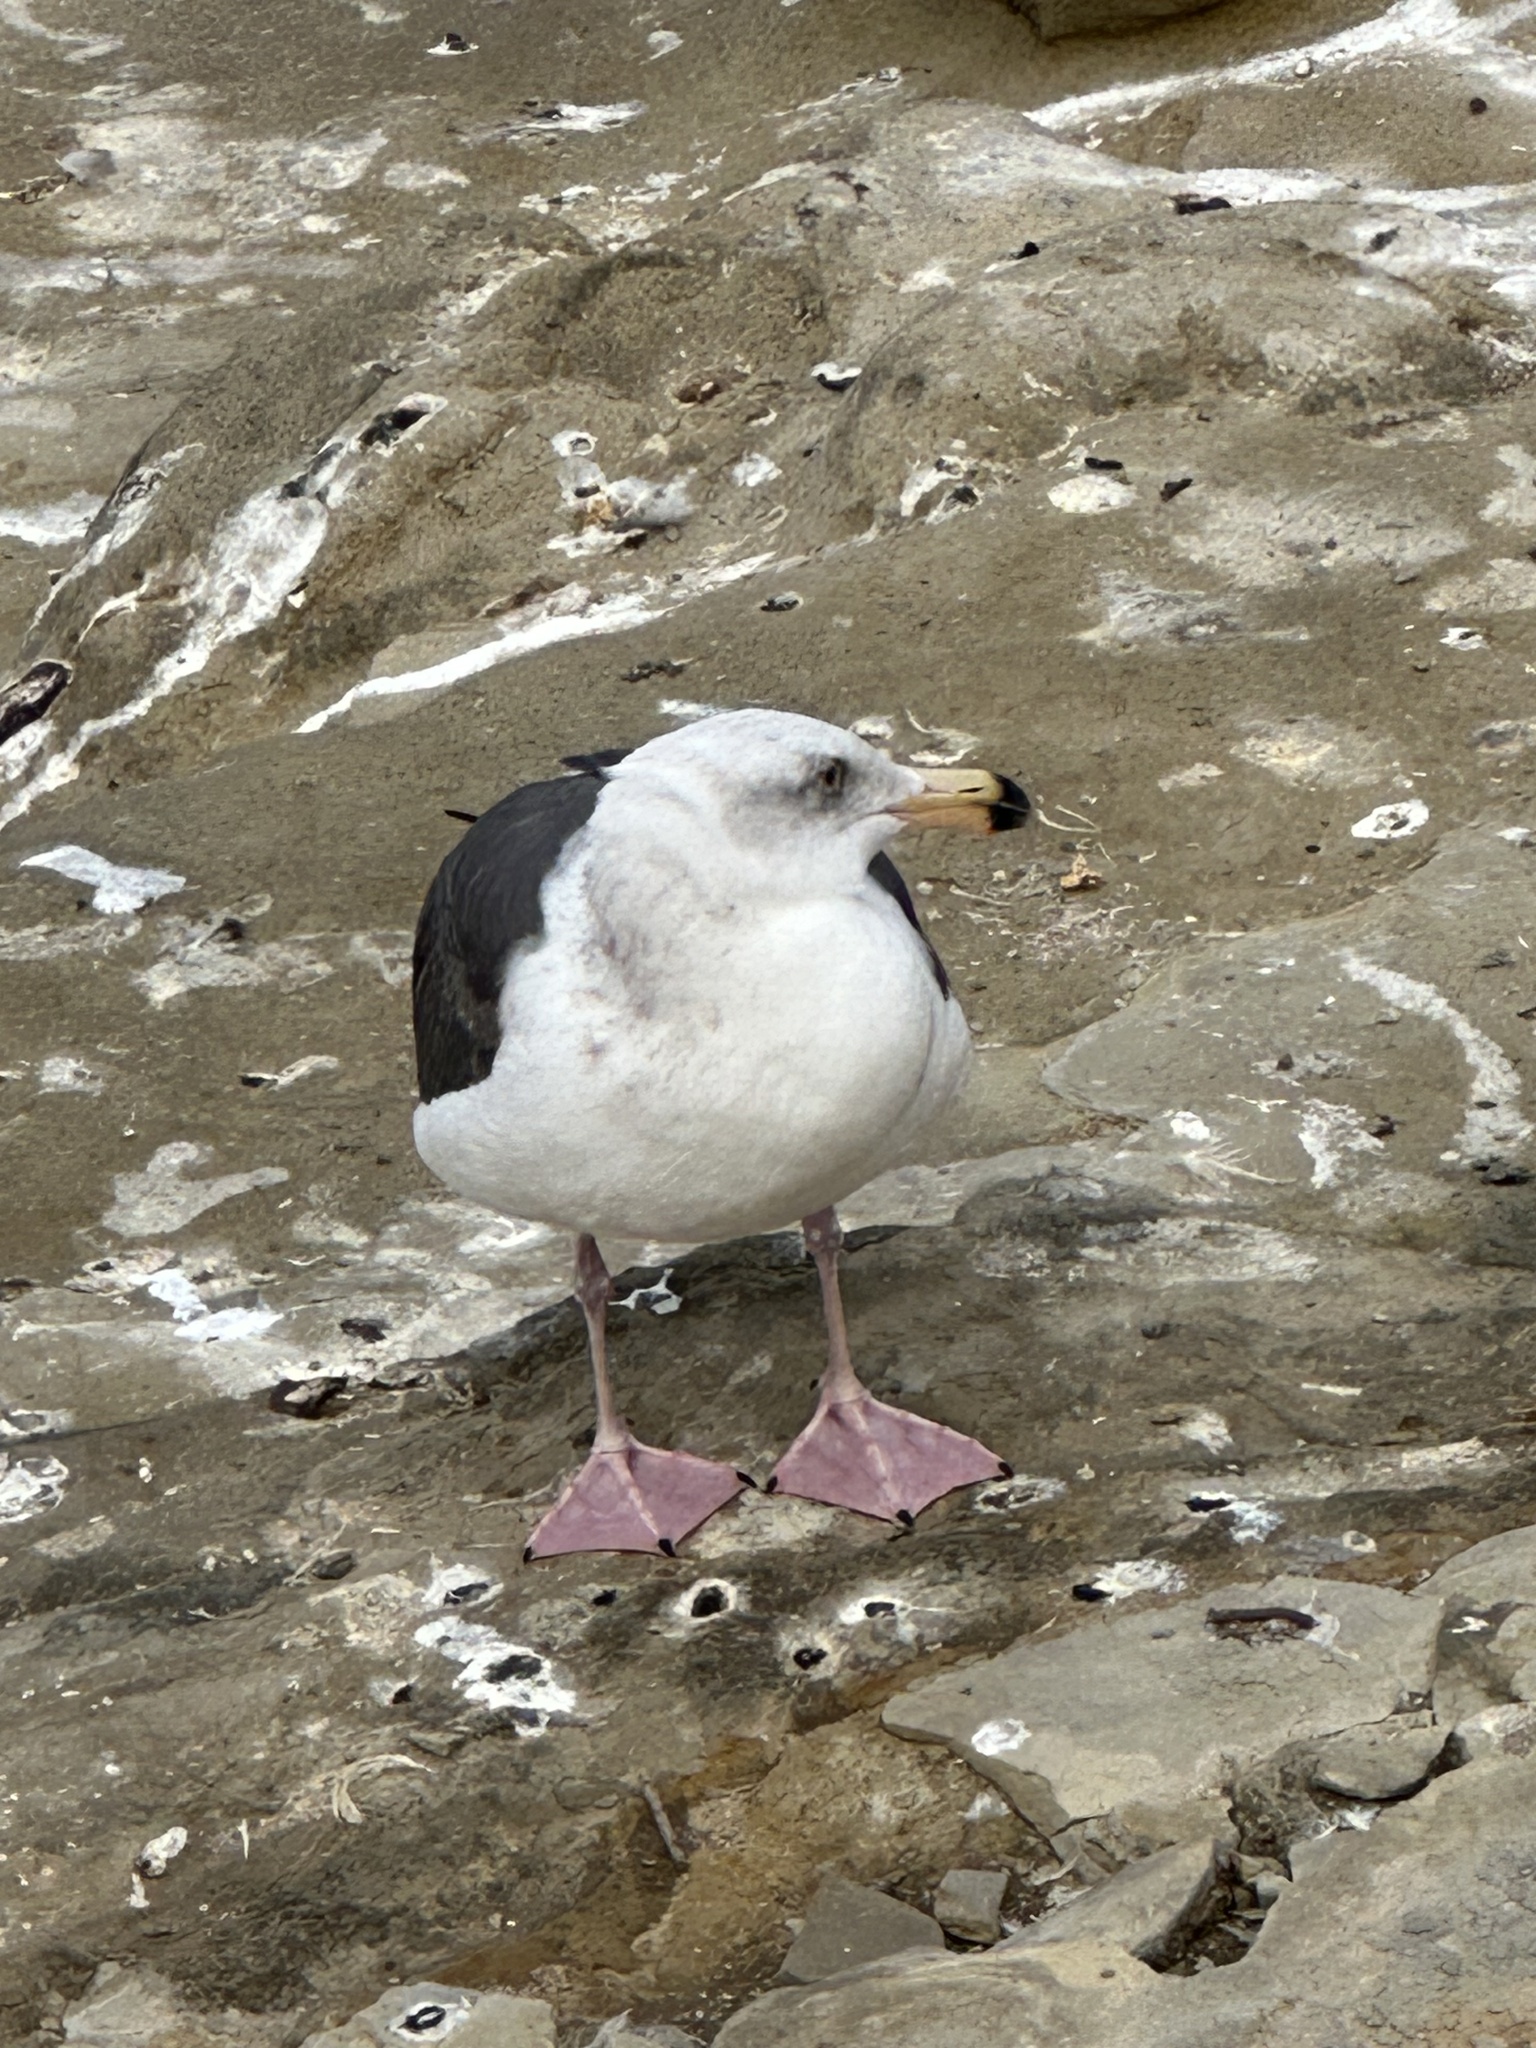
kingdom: Animalia
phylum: Chordata
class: Aves
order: Charadriiformes
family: Laridae
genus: Larus
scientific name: Larus occidentalis
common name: Western gull
